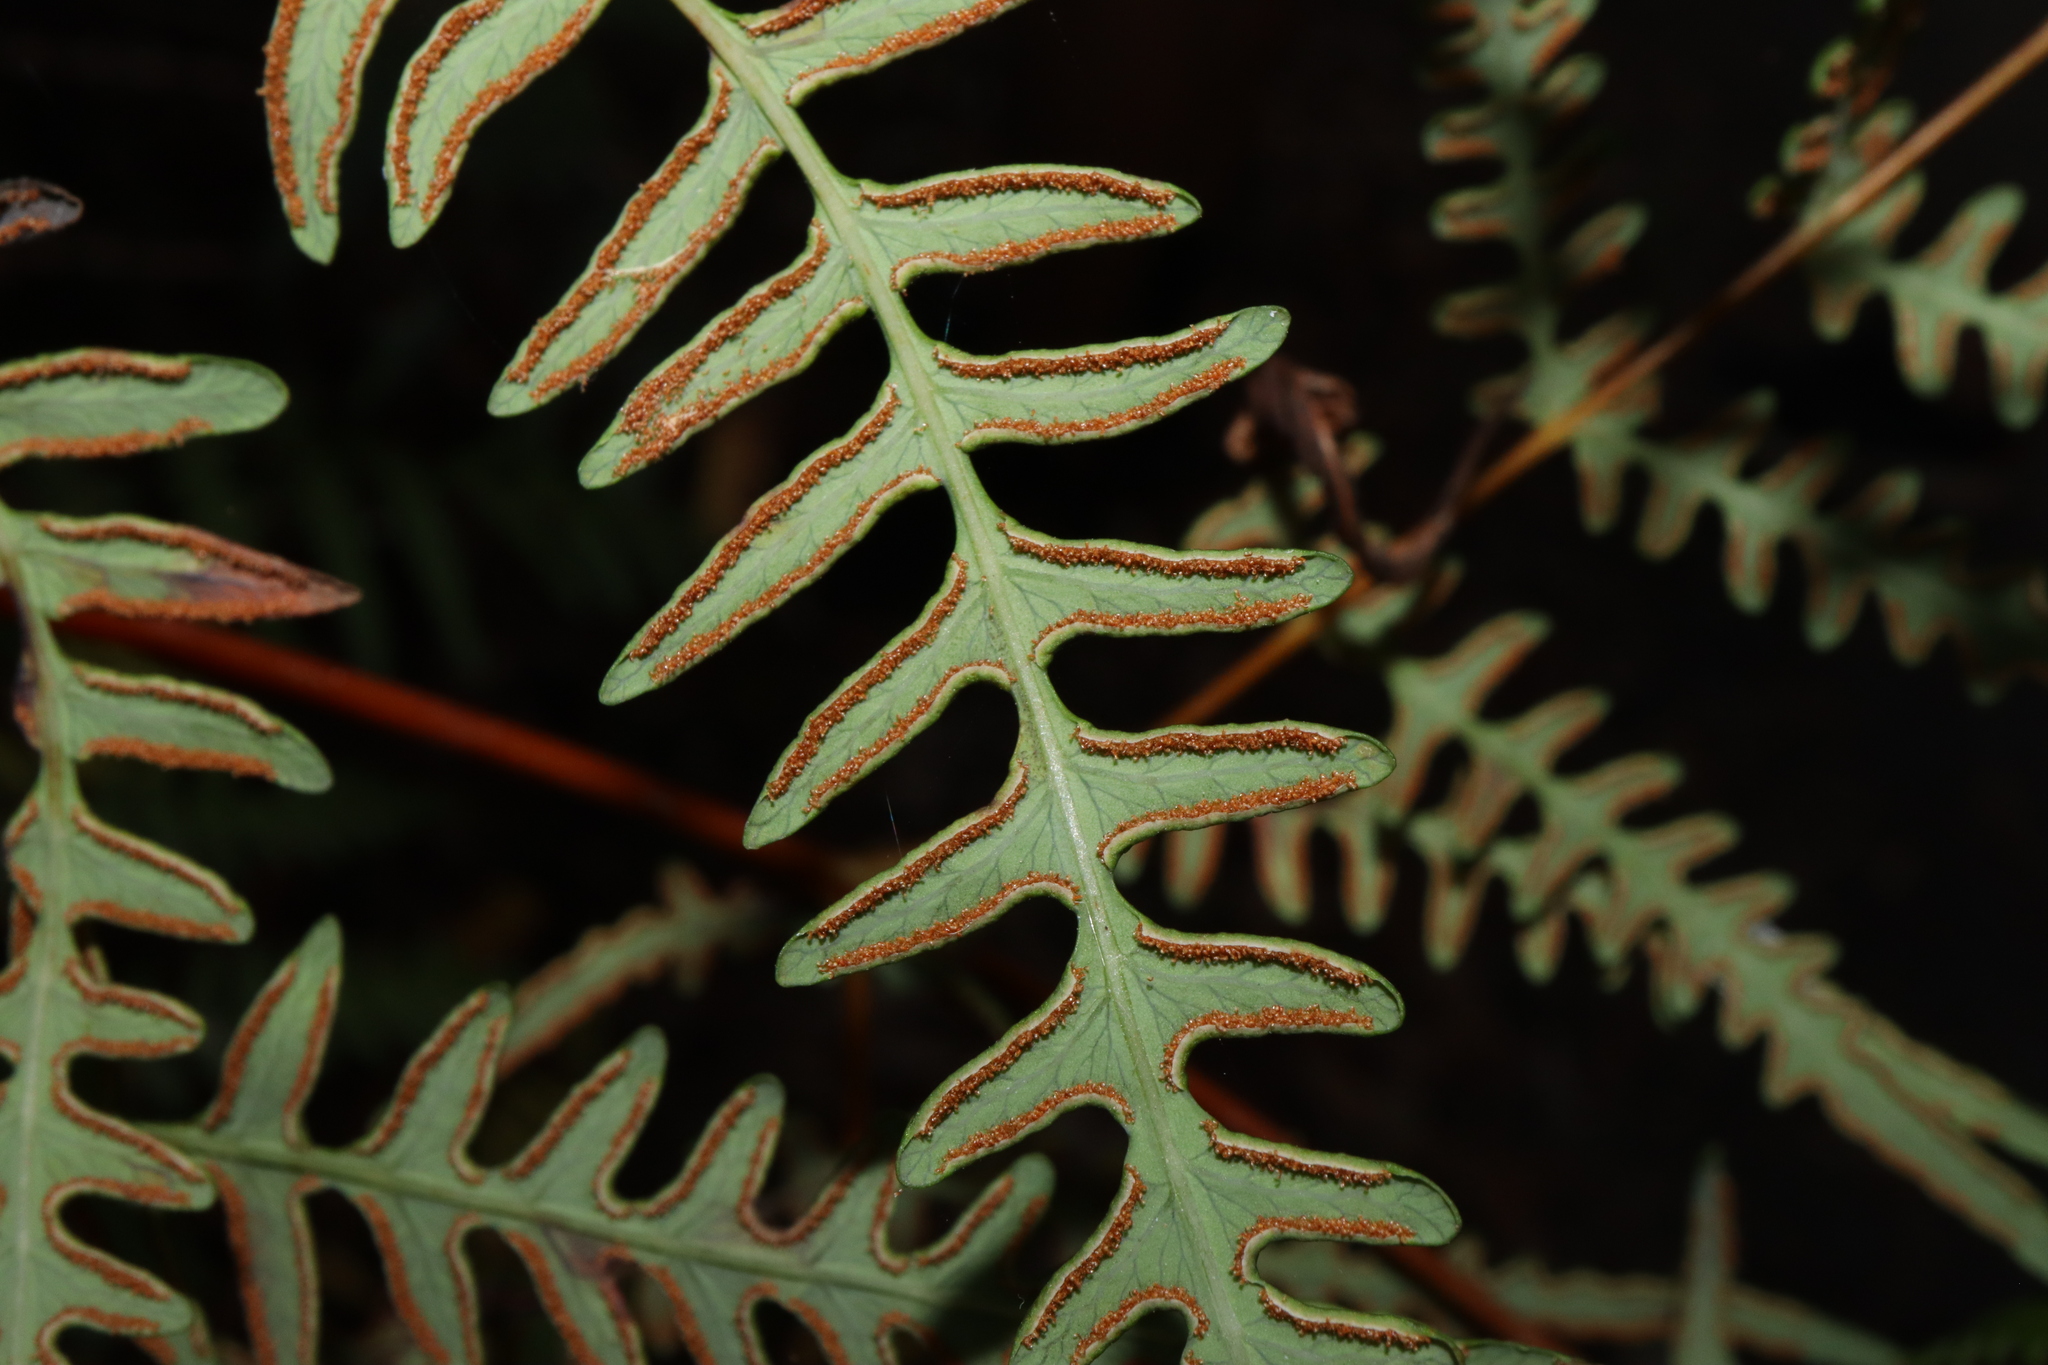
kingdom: Plantae
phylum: Tracheophyta
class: Polypodiopsida
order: Polypodiales
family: Dennstaedtiaceae
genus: Histiopteris
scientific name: Histiopteris incisa
